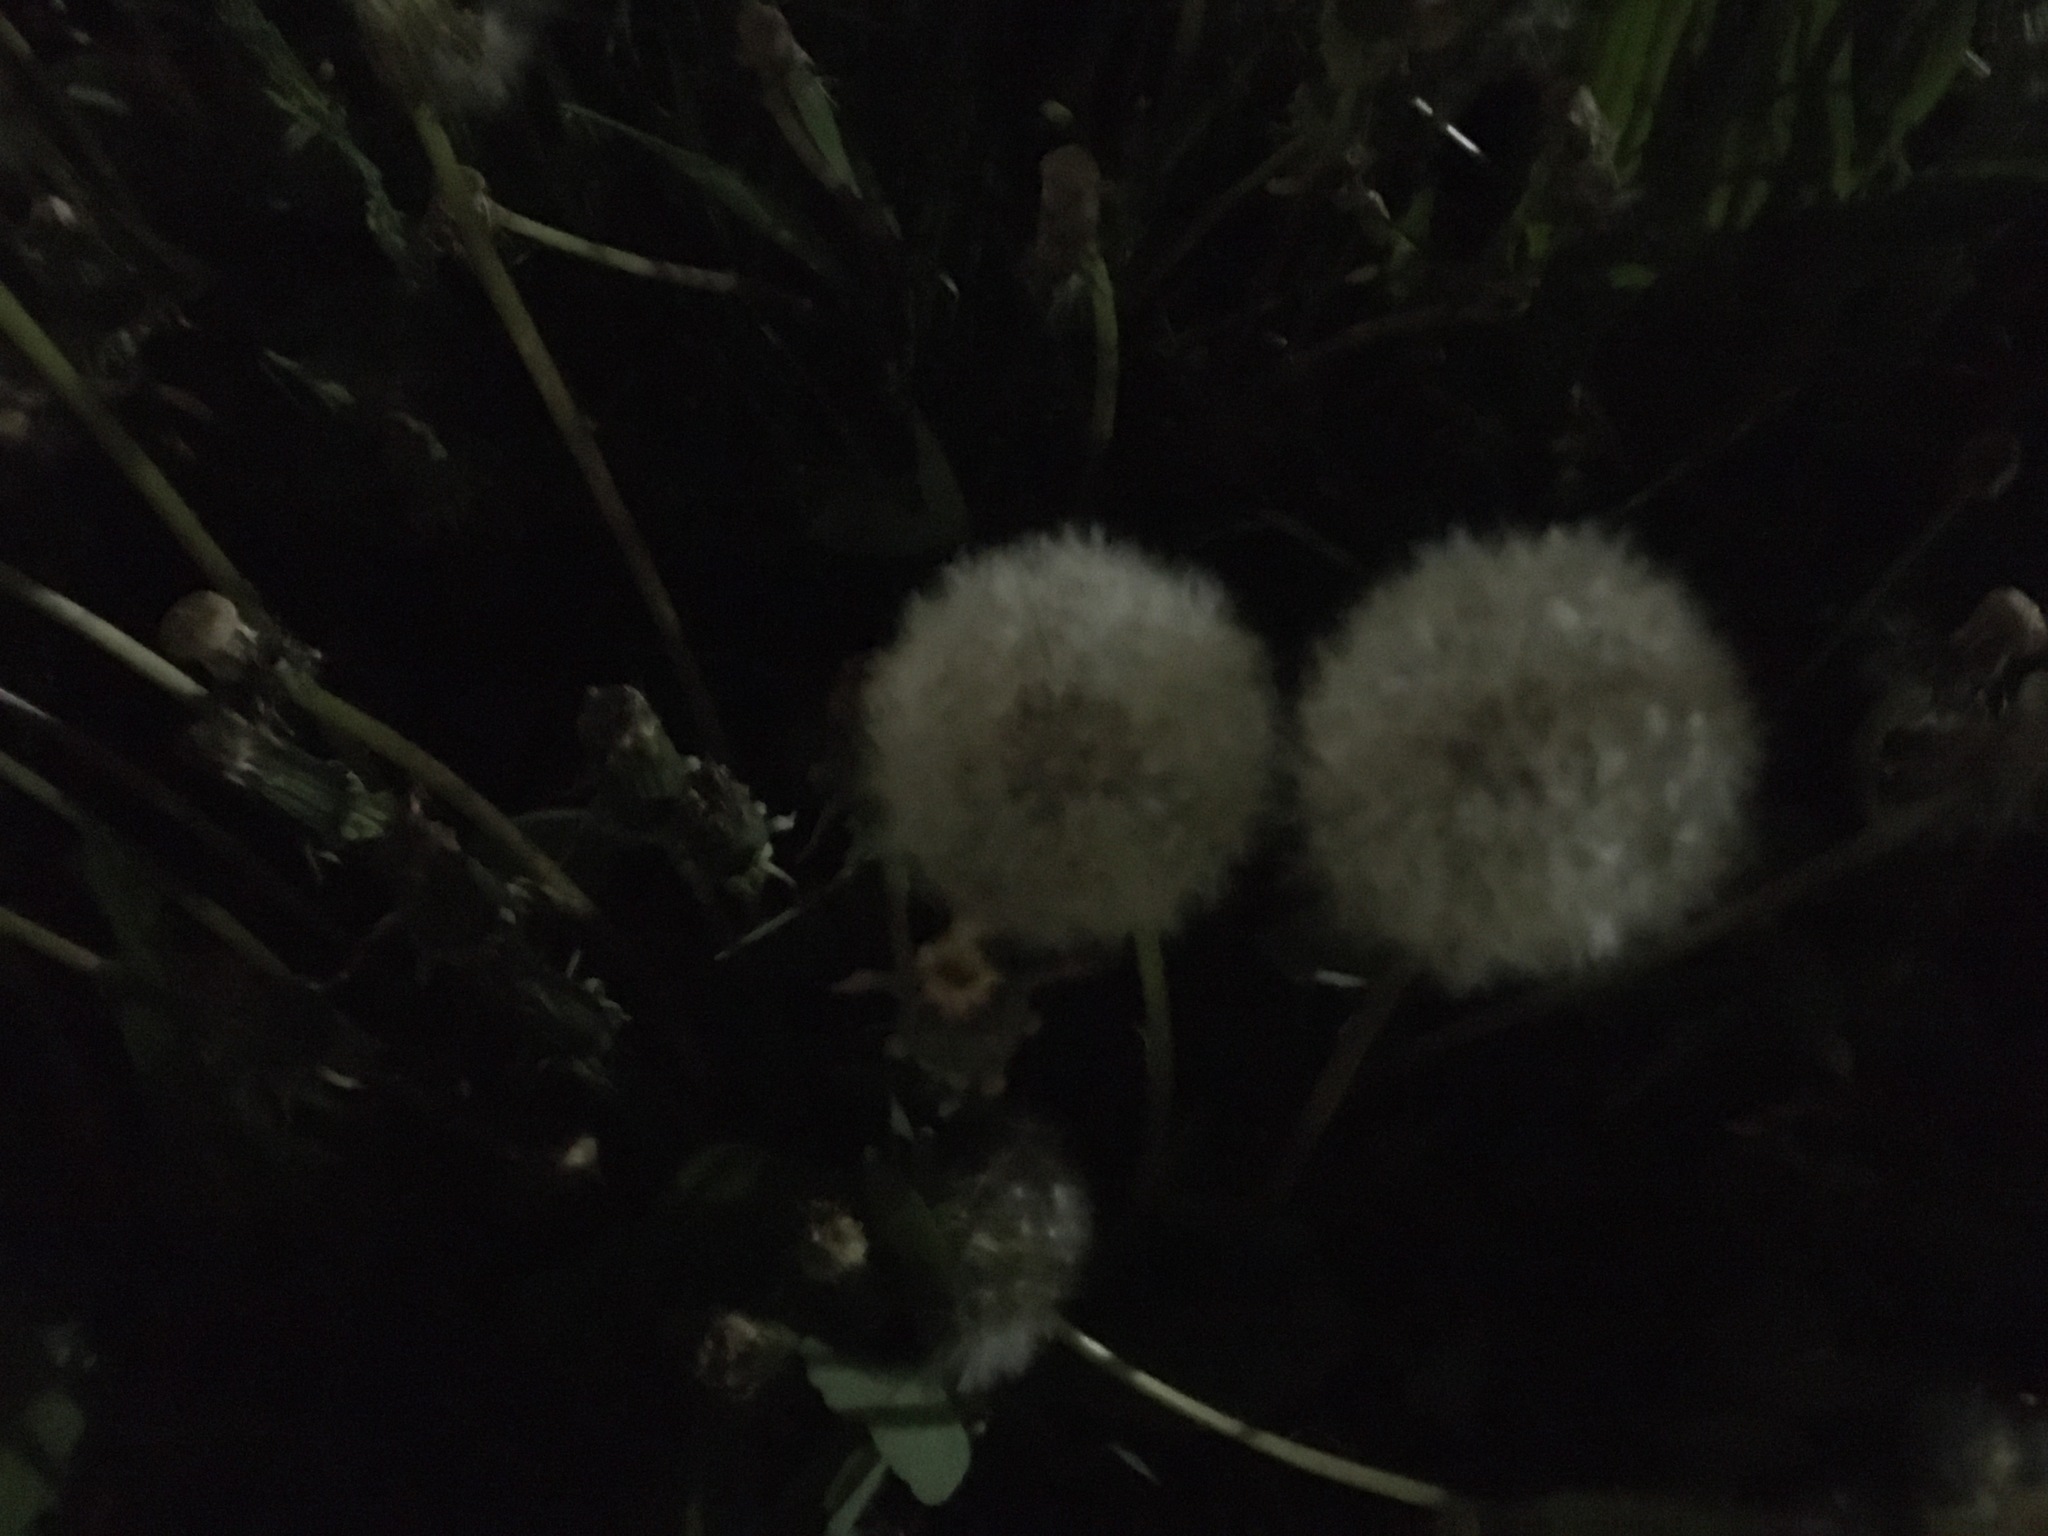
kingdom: Plantae
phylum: Tracheophyta
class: Magnoliopsida
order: Asterales
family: Asteraceae
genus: Taraxacum
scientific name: Taraxacum officinale
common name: Common dandelion
